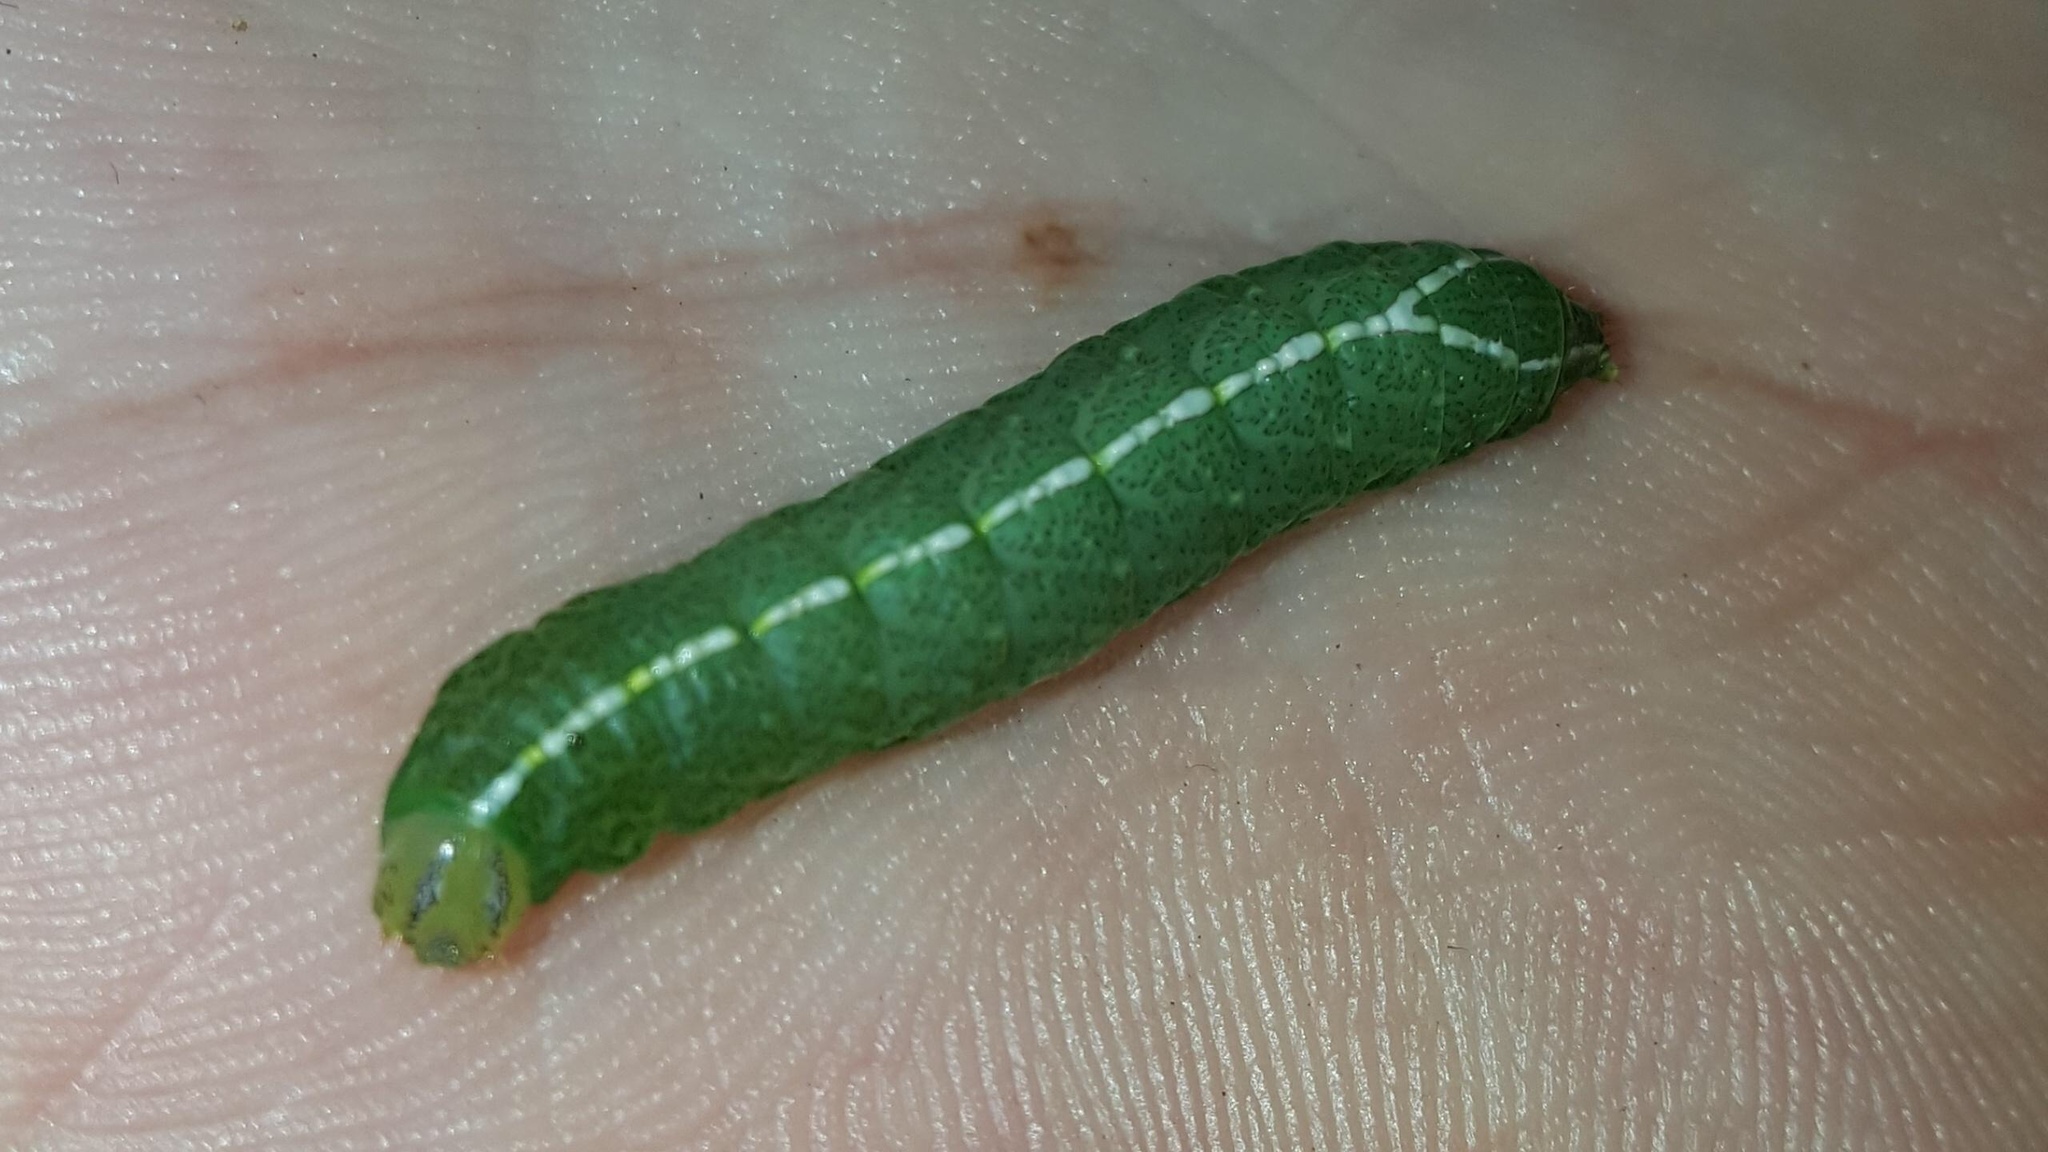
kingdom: Animalia
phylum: Arthropoda
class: Insecta
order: Lepidoptera
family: Notodontidae
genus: Rifargia
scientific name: Rifargia
